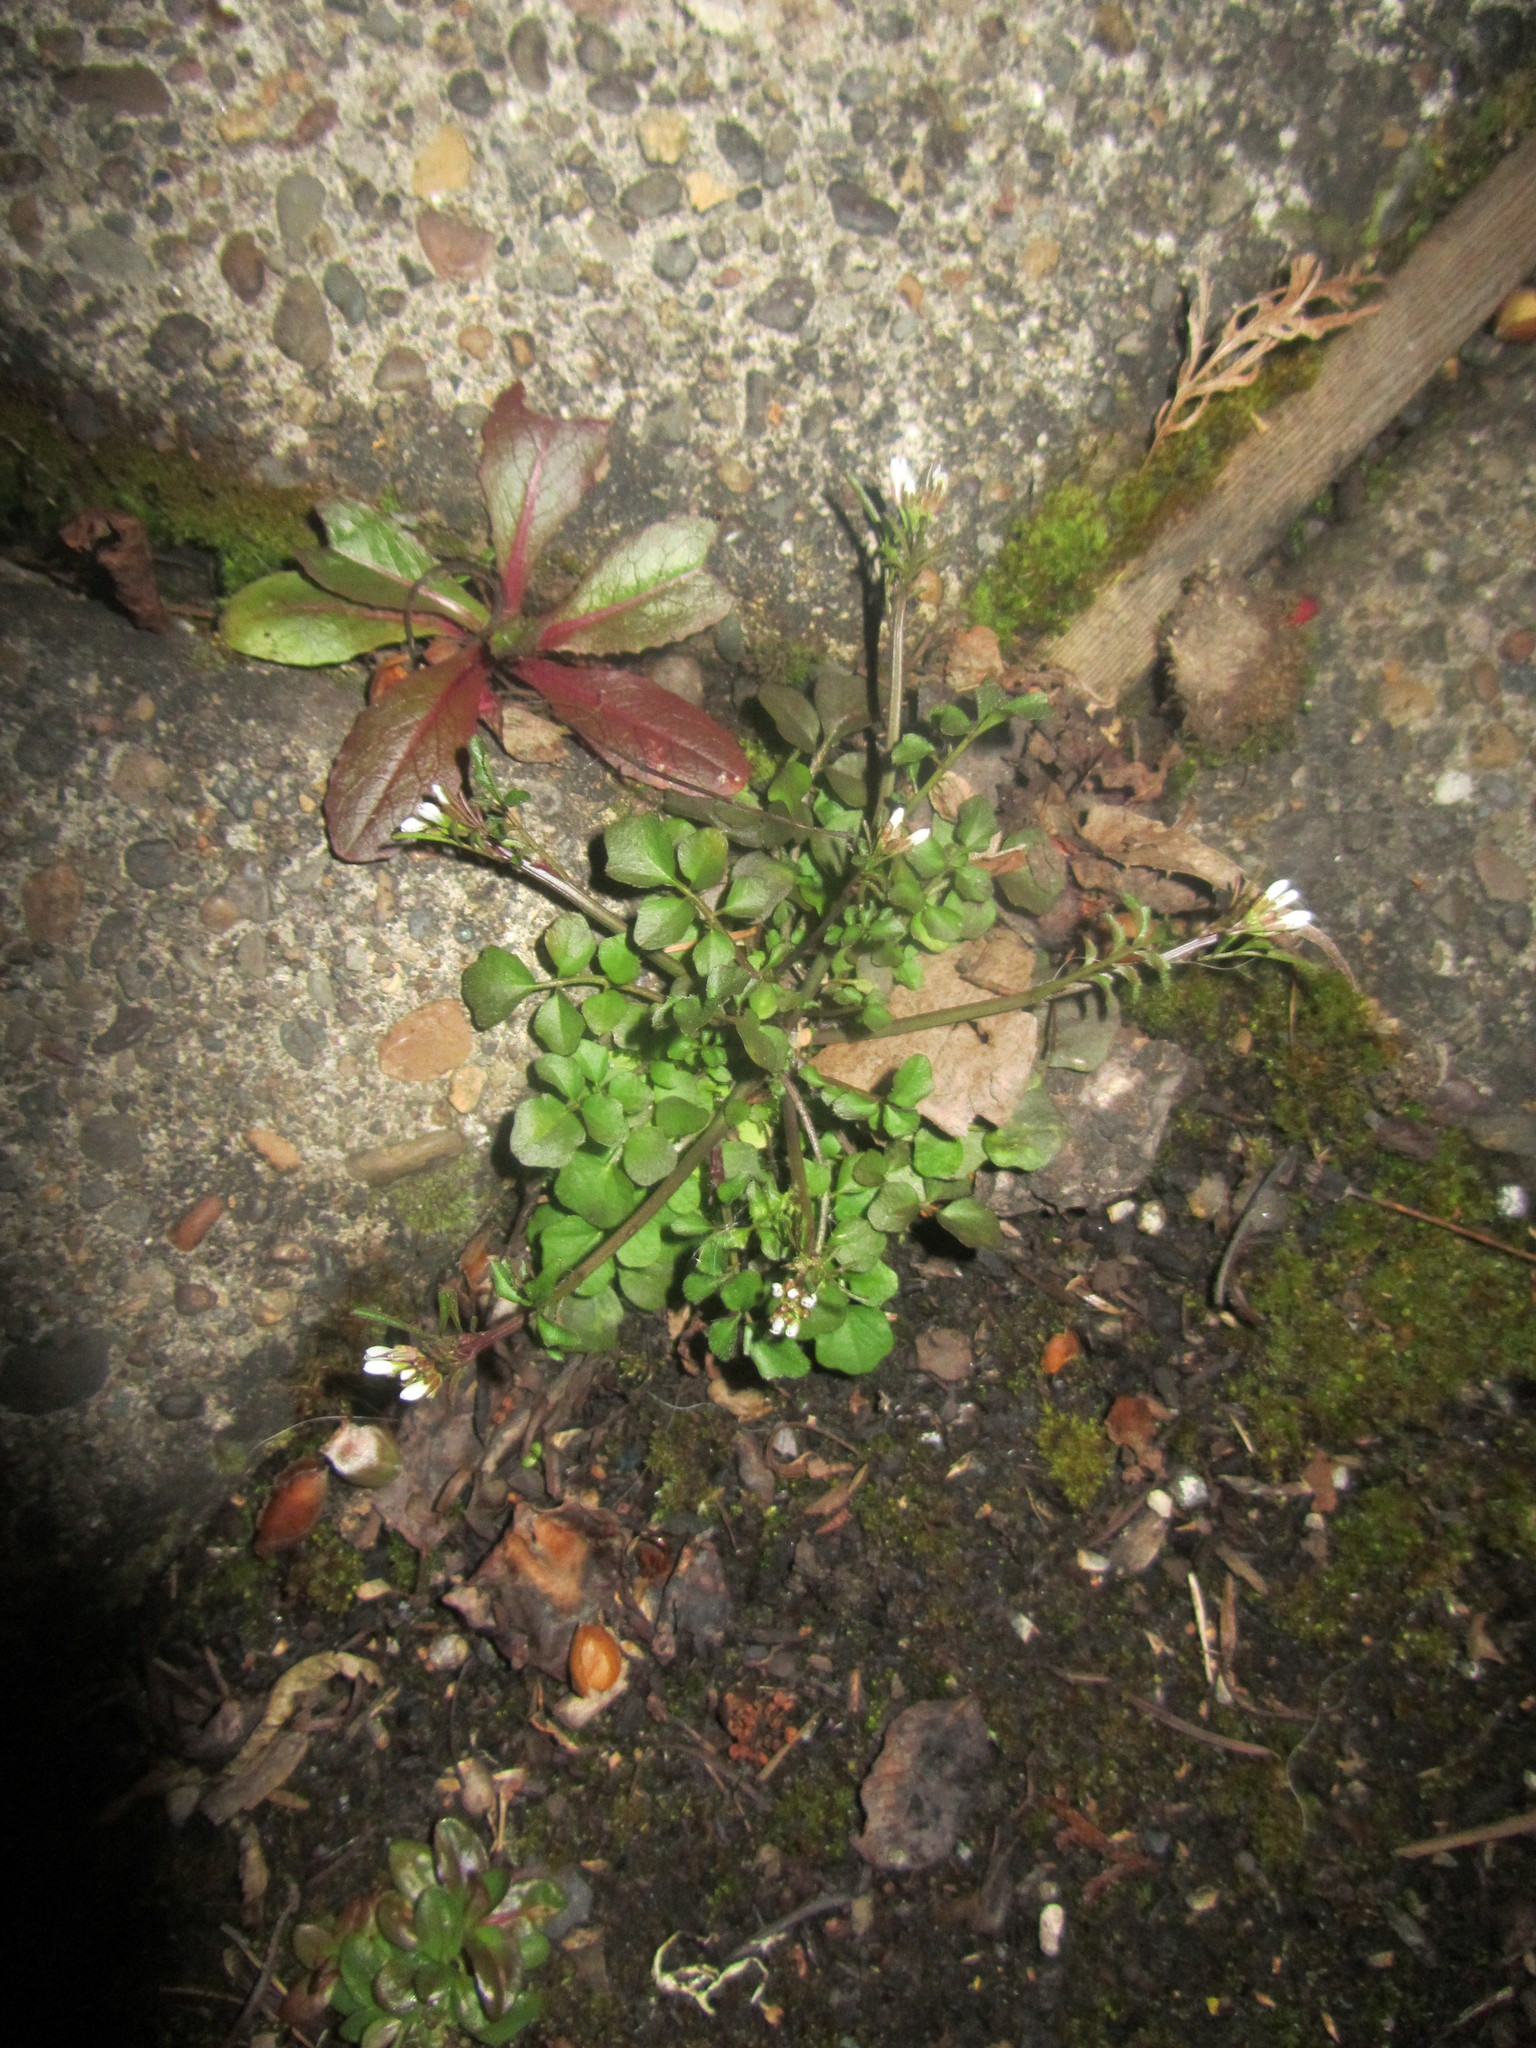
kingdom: Plantae
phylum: Tracheophyta
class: Magnoliopsida
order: Brassicales
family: Brassicaceae
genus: Cardamine
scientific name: Cardamine hirsuta
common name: Hairy bittercress
